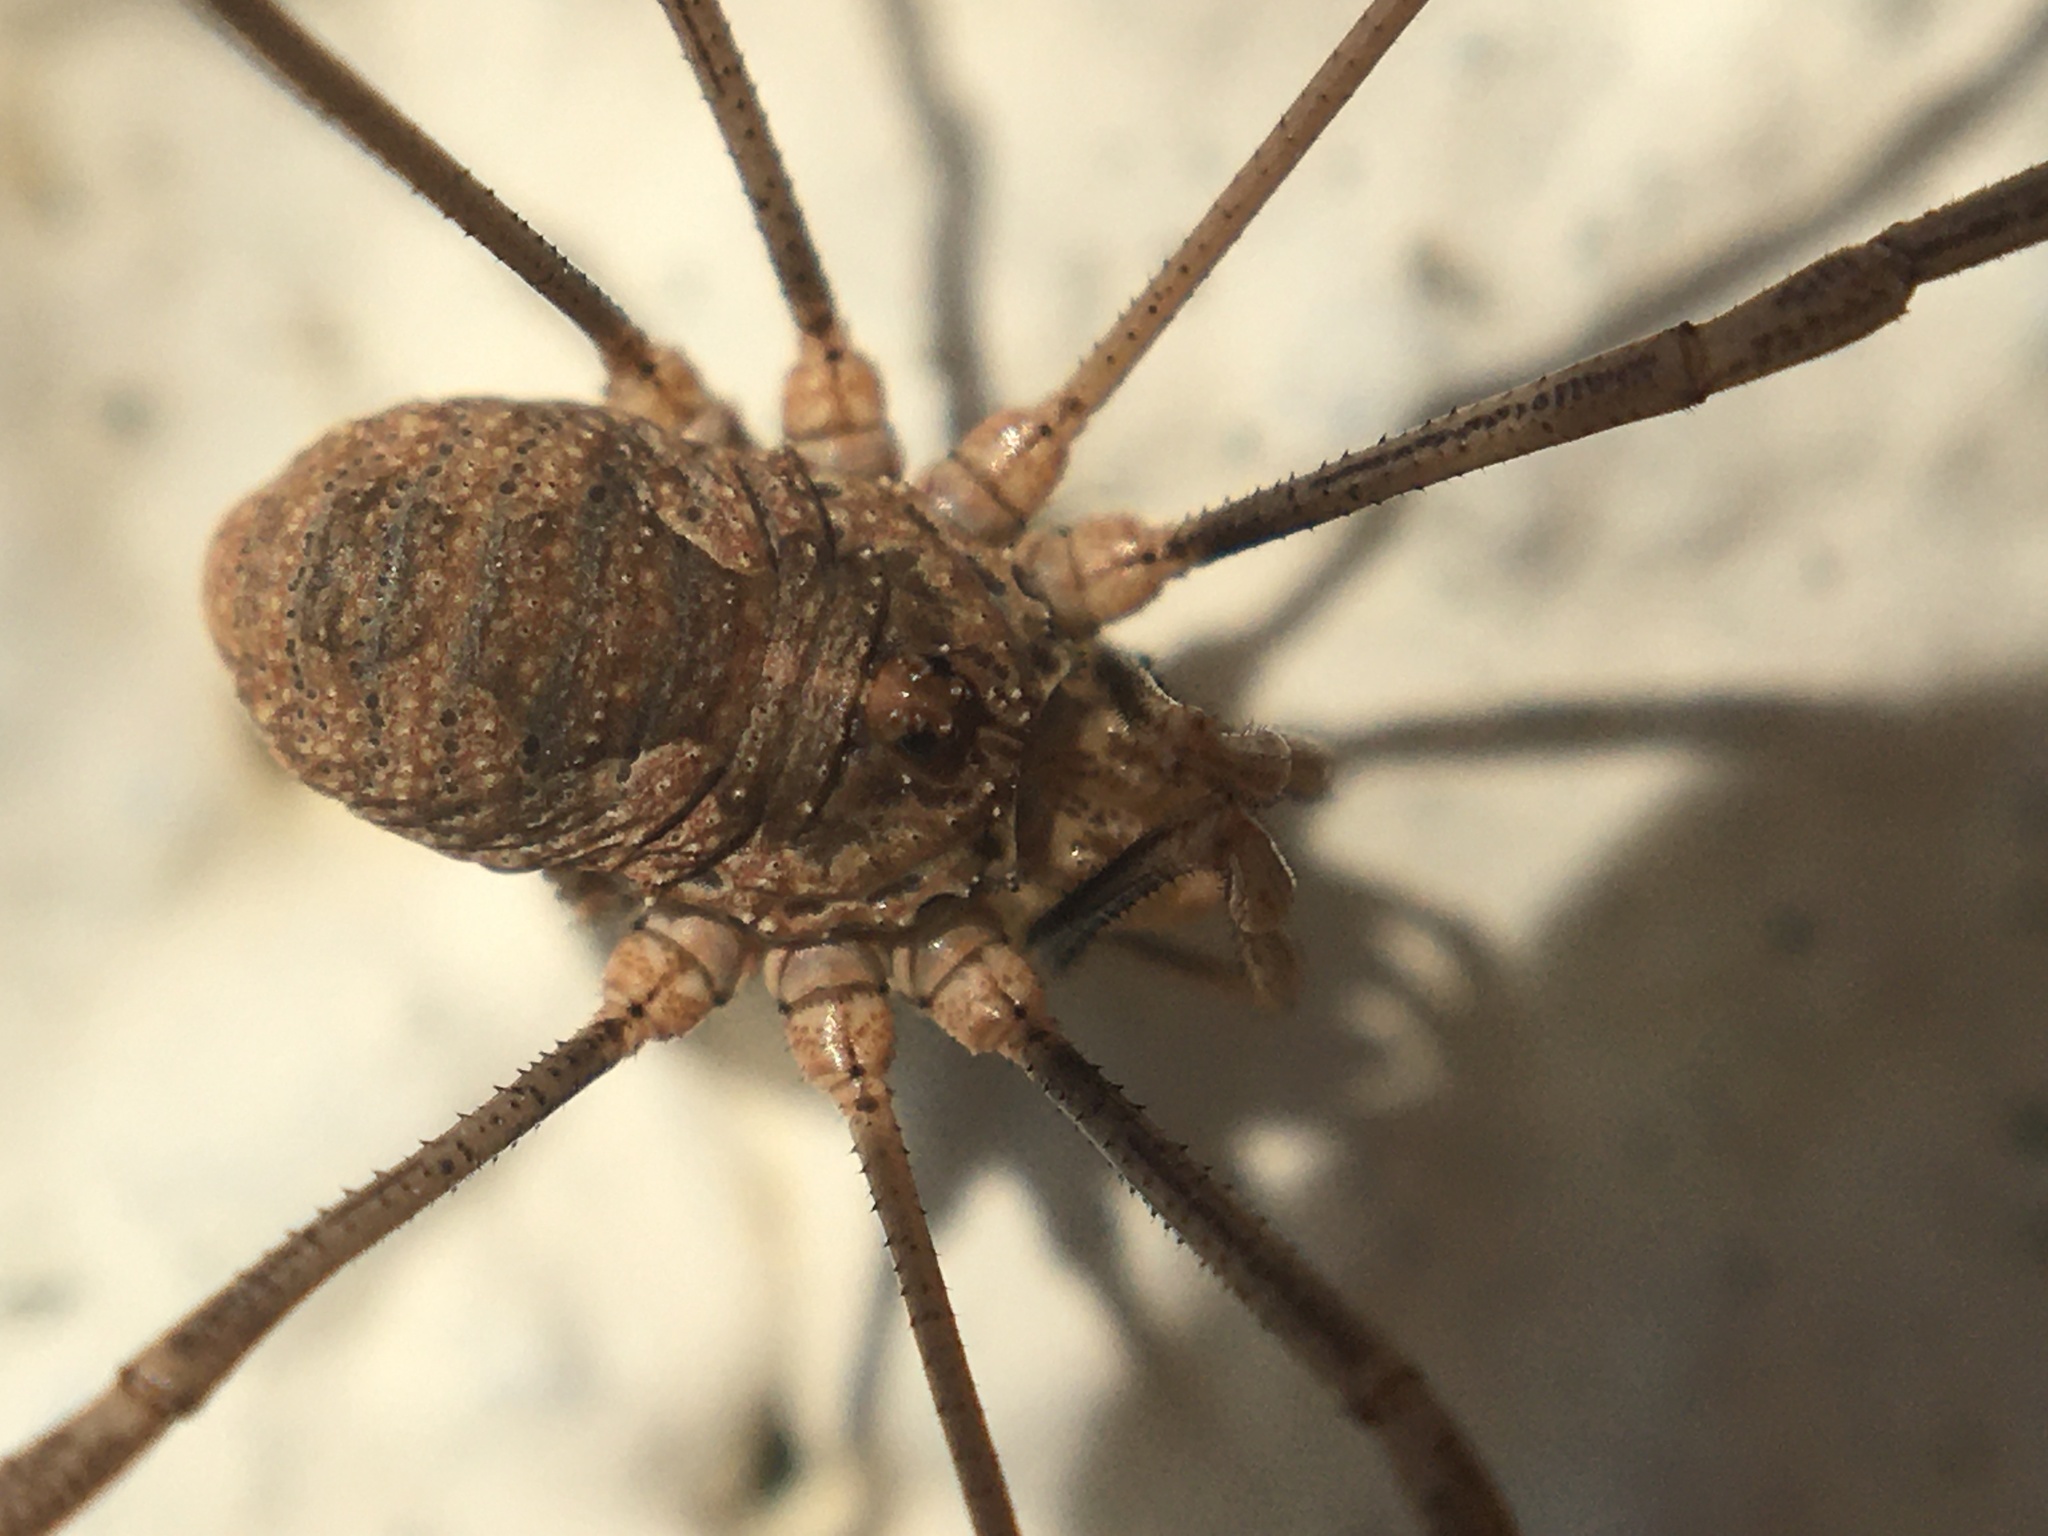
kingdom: Animalia
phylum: Arthropoda
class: Arachnida
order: Opiliones
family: Phalangiidae
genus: Phalangium
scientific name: Phalangium opilio
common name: Daddy longleg
